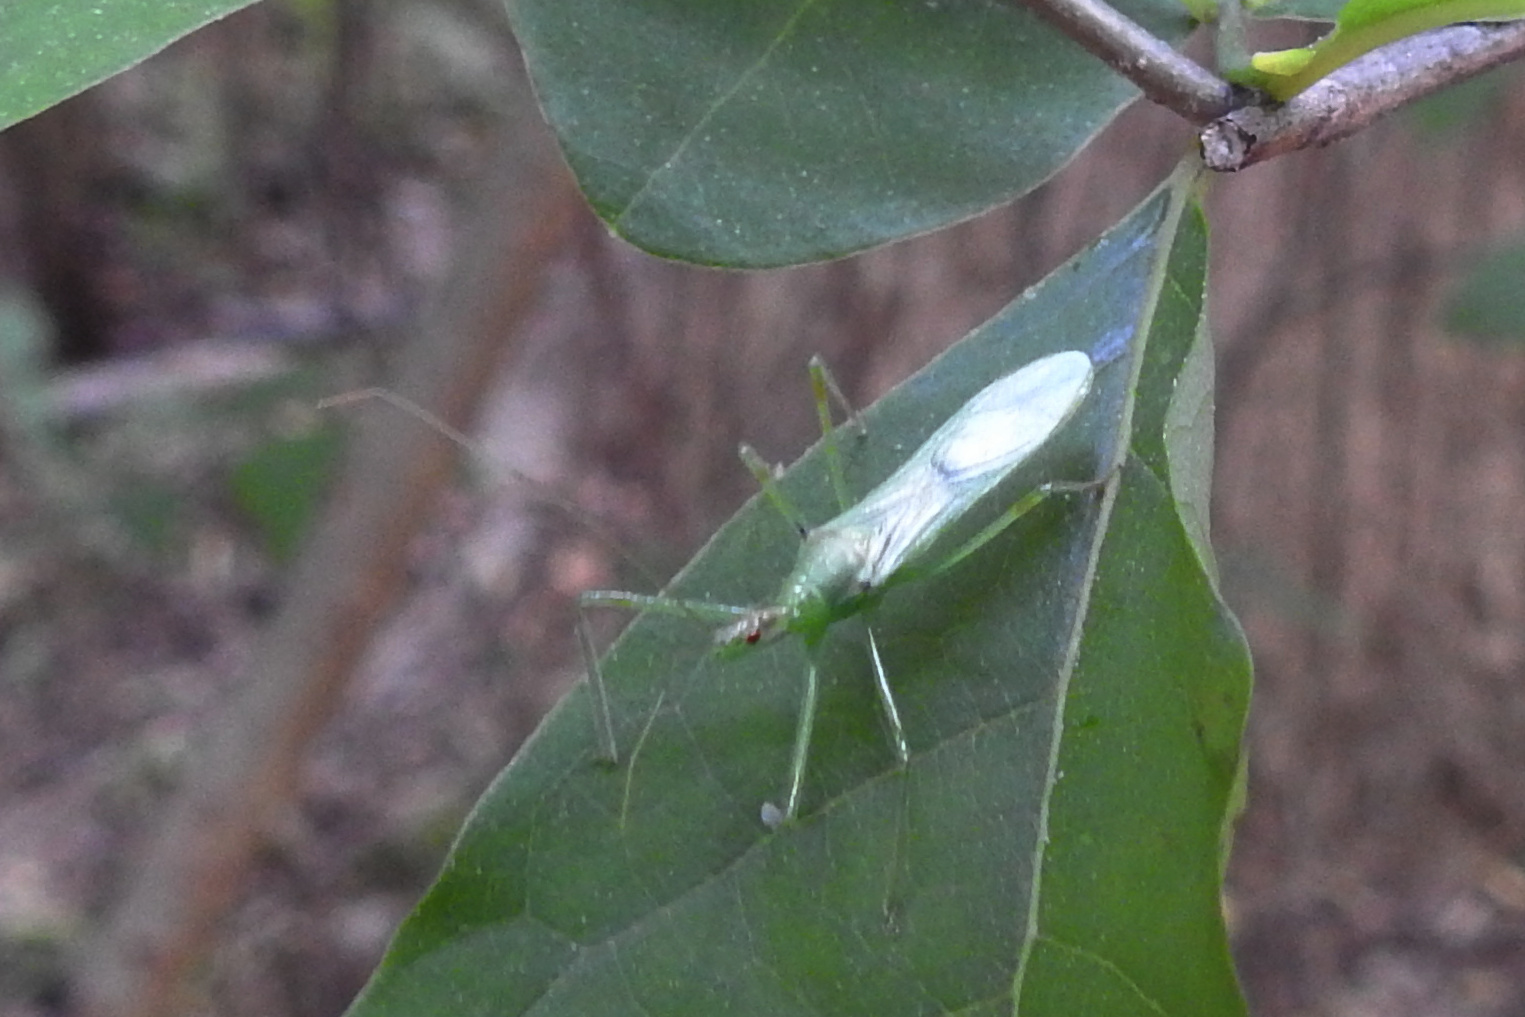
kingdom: Animalia
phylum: Arthropoda
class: Insecta
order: Hemiptera
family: Reduviidae
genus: Zelus
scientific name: Zelus luridus
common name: Pale green assassin bug
